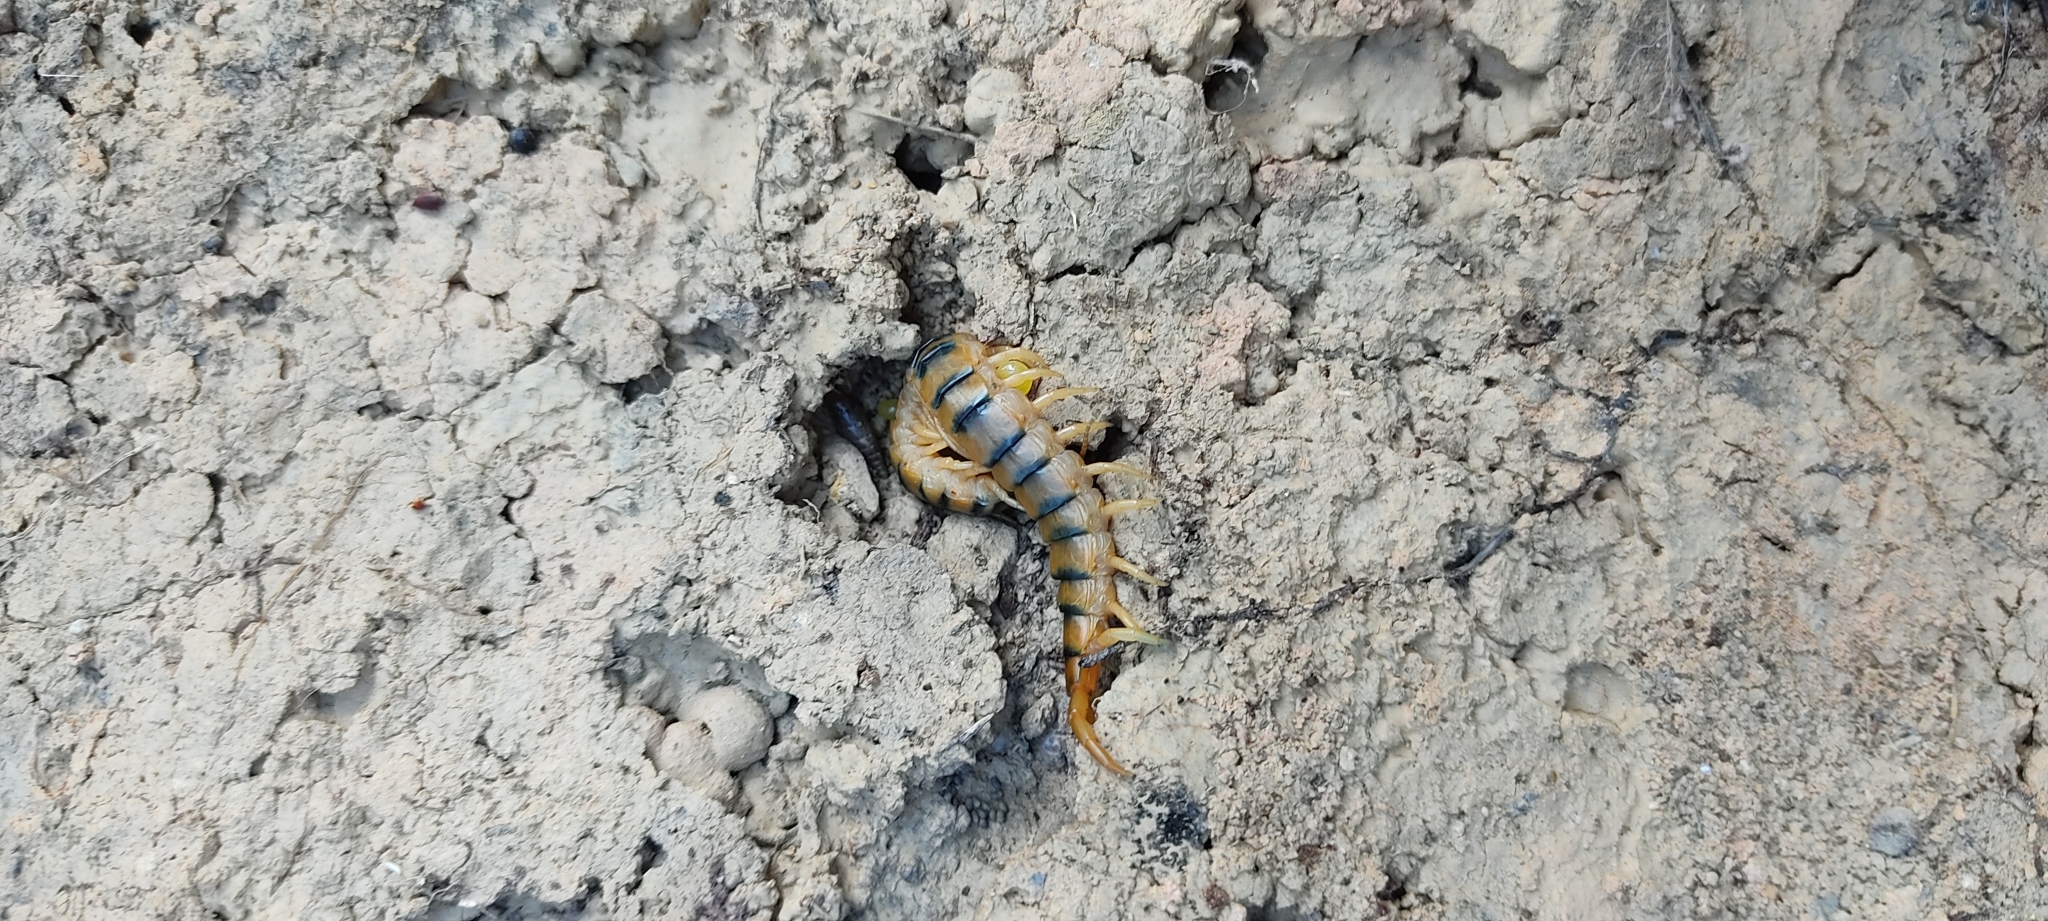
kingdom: Animalia
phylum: Arthropoda
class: Chilopoda
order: Scolopendromorpha
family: Scolopendridae
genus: Scolopendra
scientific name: Scolopendra cingulata
